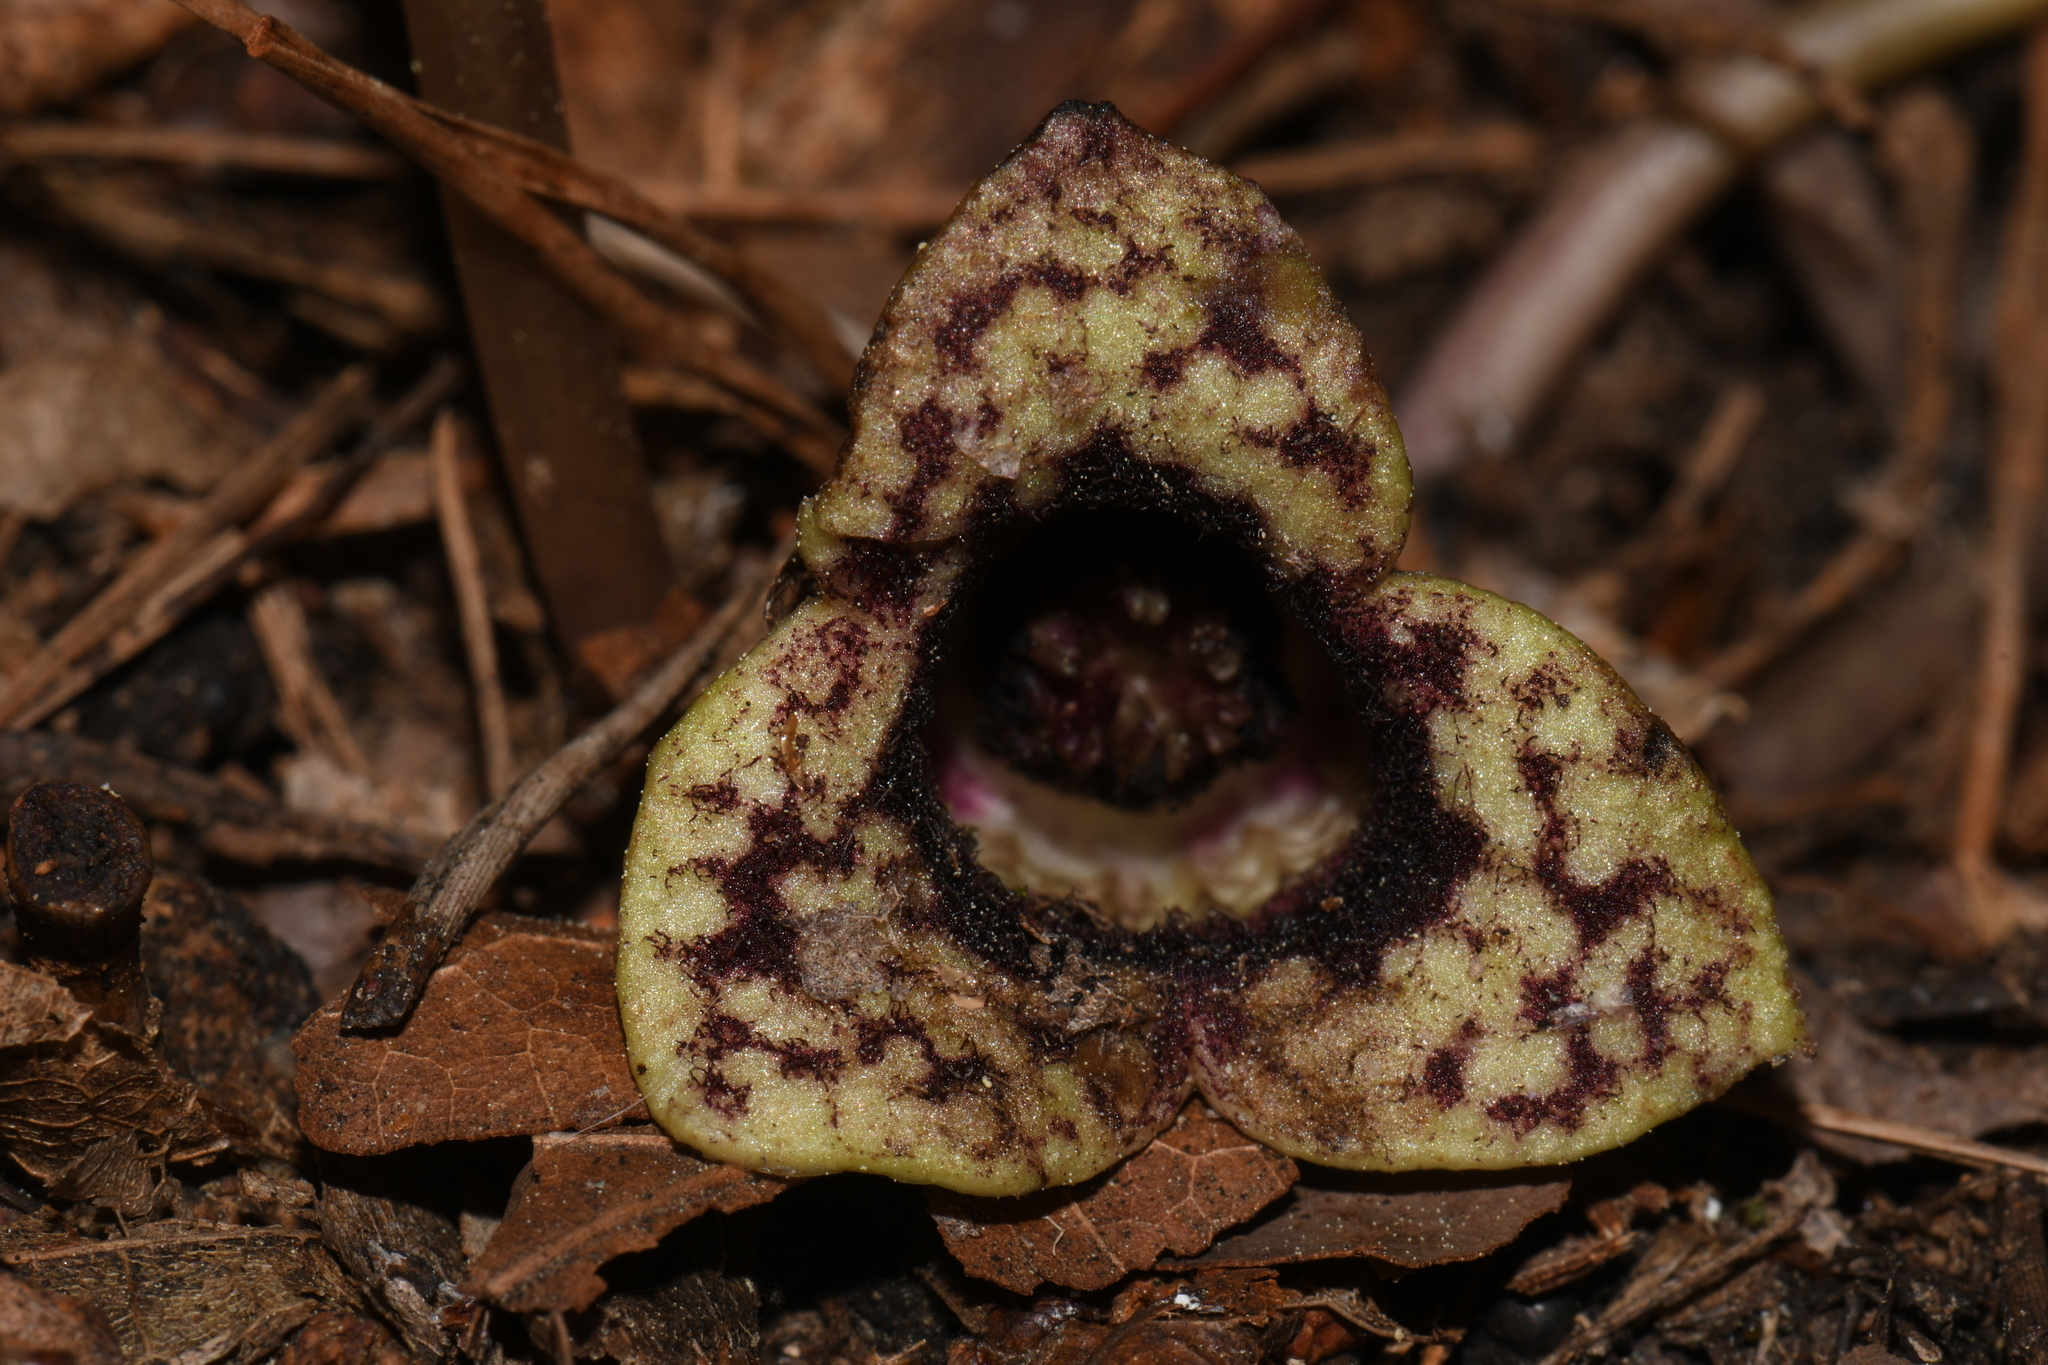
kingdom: Plantae
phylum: Tracheophyta
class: Magnoliopsida
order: Piperales
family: Aristolochiaceae
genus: Hexastylis
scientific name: Hexastylis heterophylla
